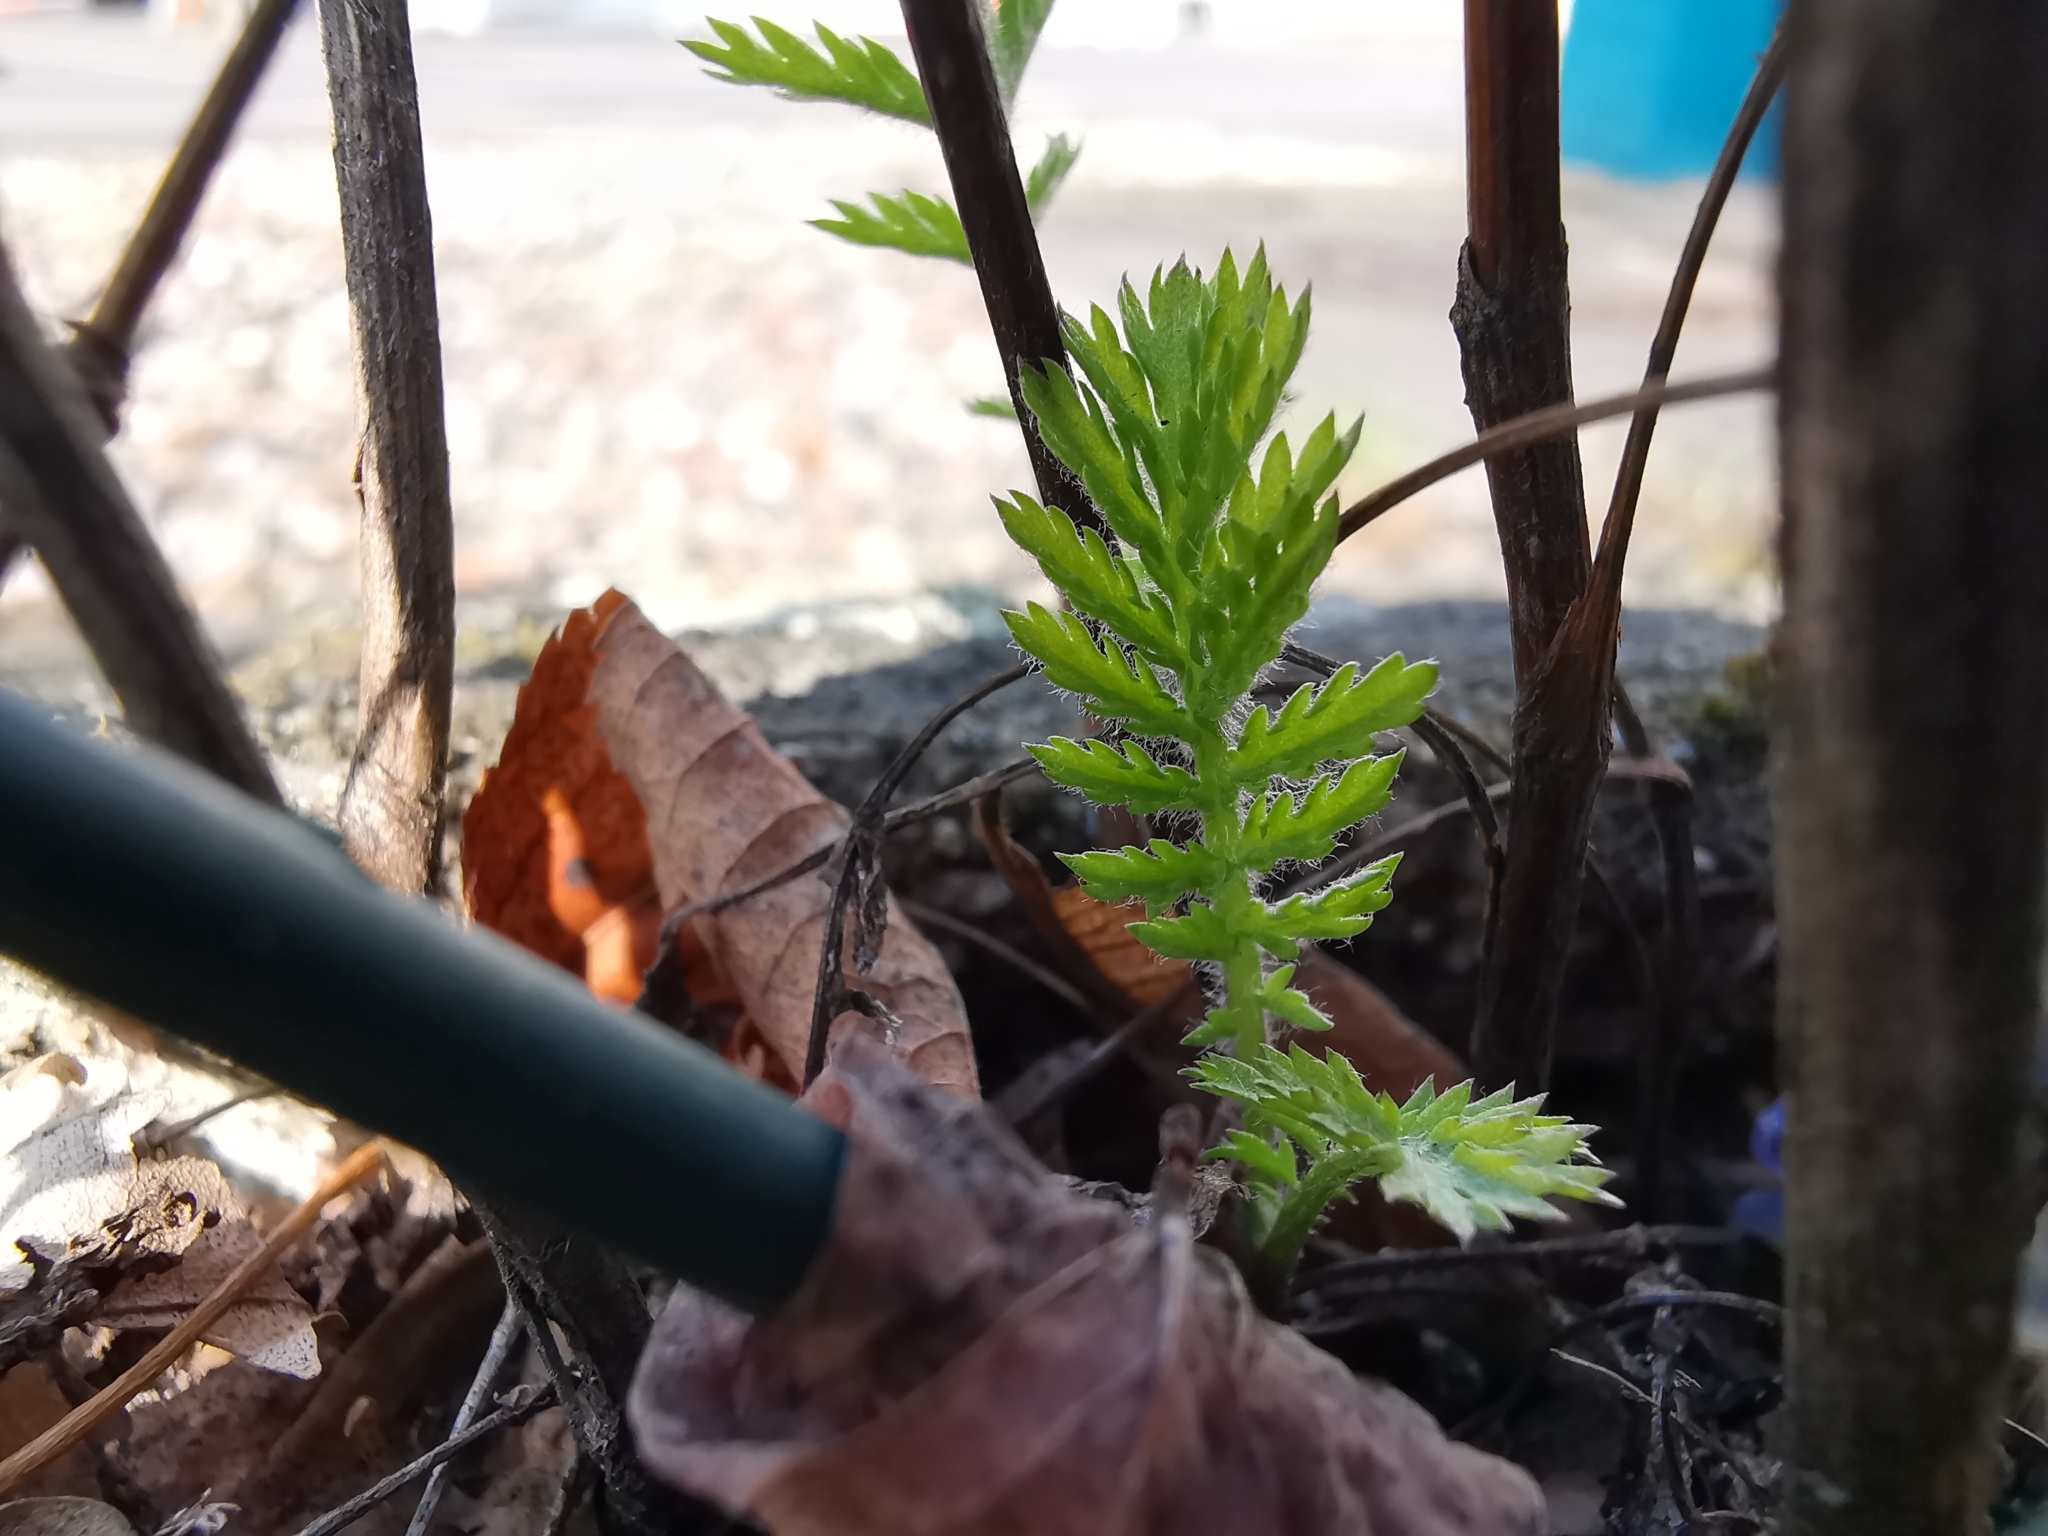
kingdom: Plantae
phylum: Tracheophyta
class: Magnoliopsida
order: Asterales
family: Asteraceae
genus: Tanacetum
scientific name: Tanacetum vulgare
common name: Common tansy
